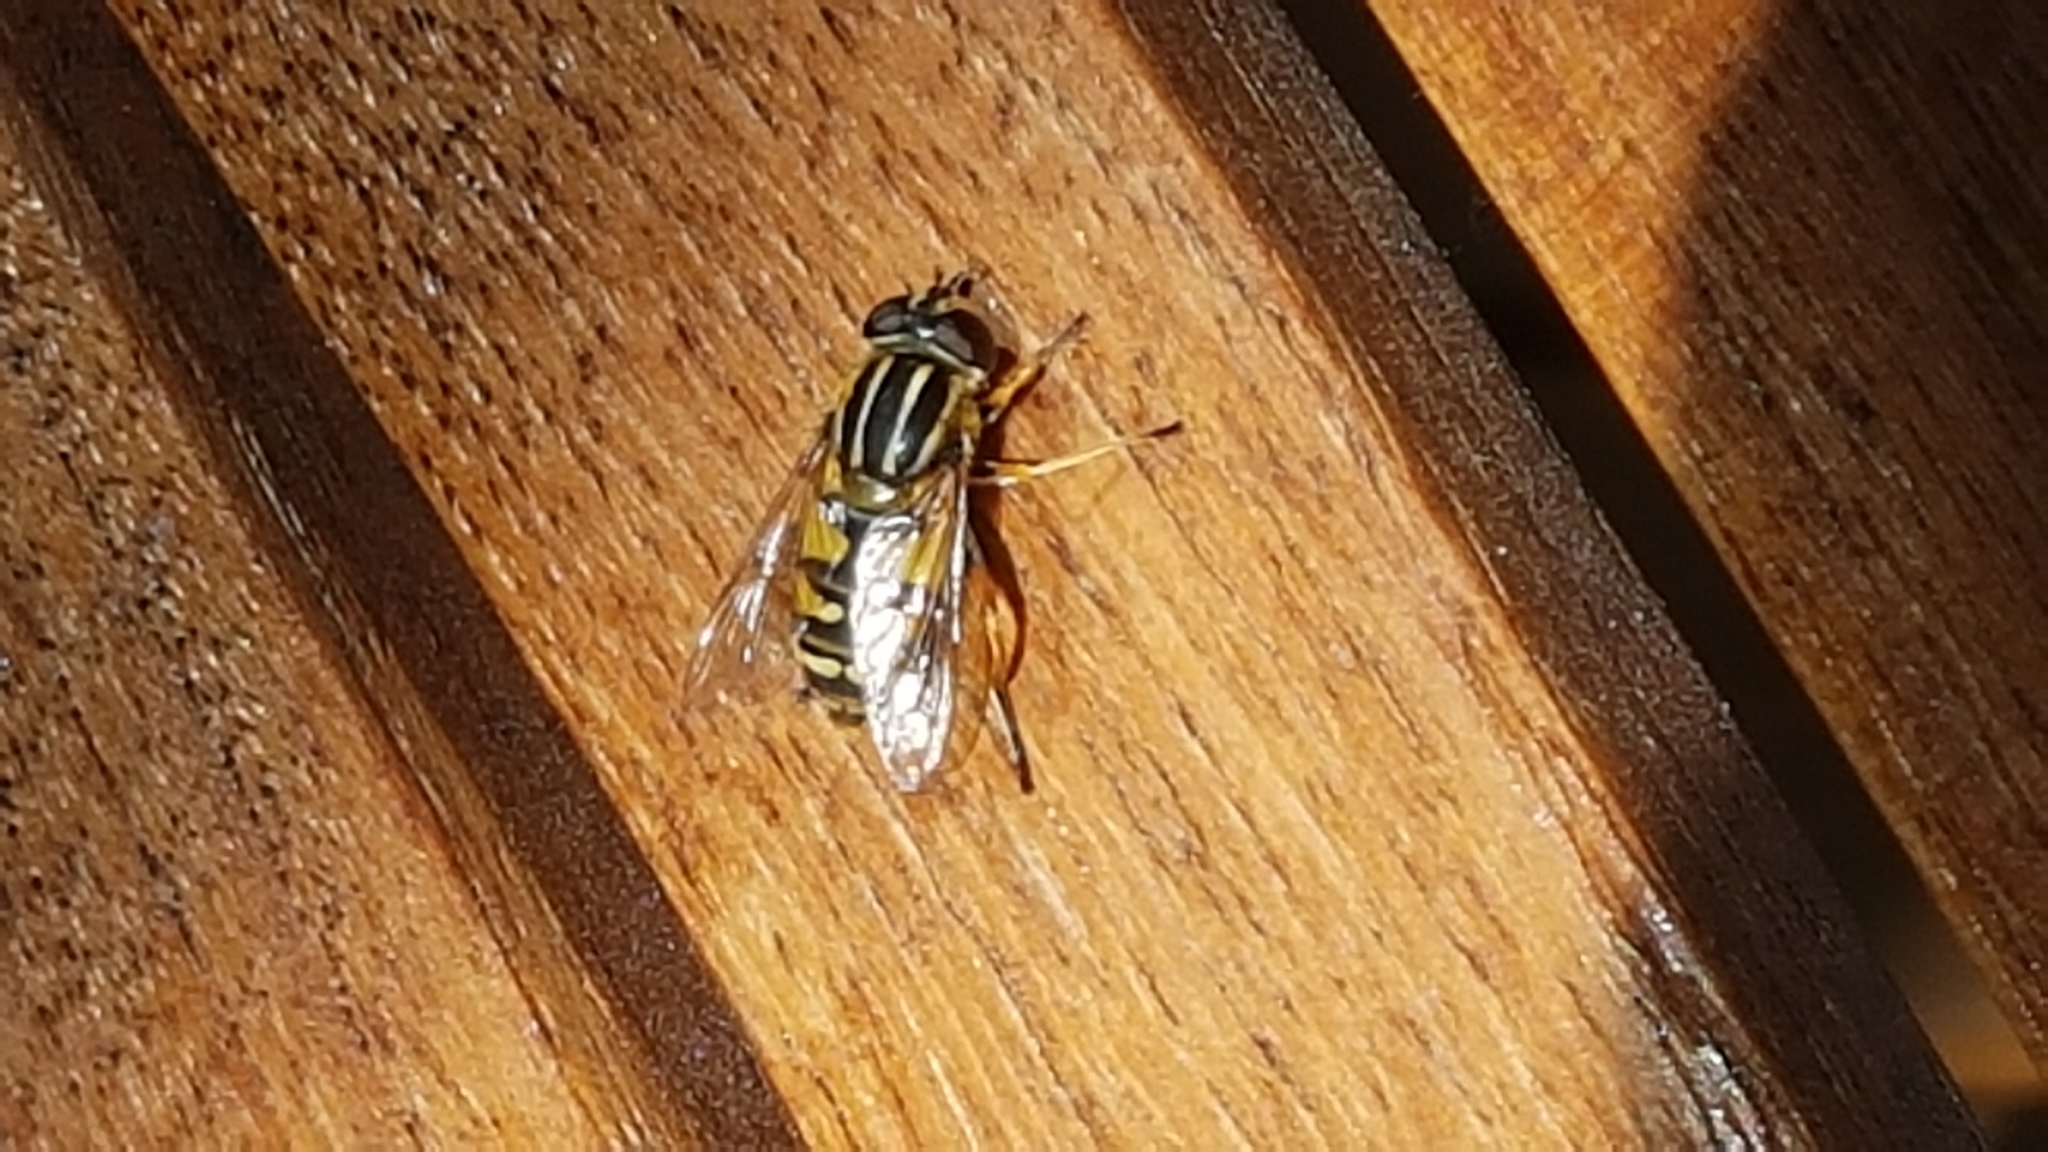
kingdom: Animalia
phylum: Arthropoda
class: Insecta
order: Diptera
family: Syrphidae
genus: Helophilus
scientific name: Helophilus pendulus
